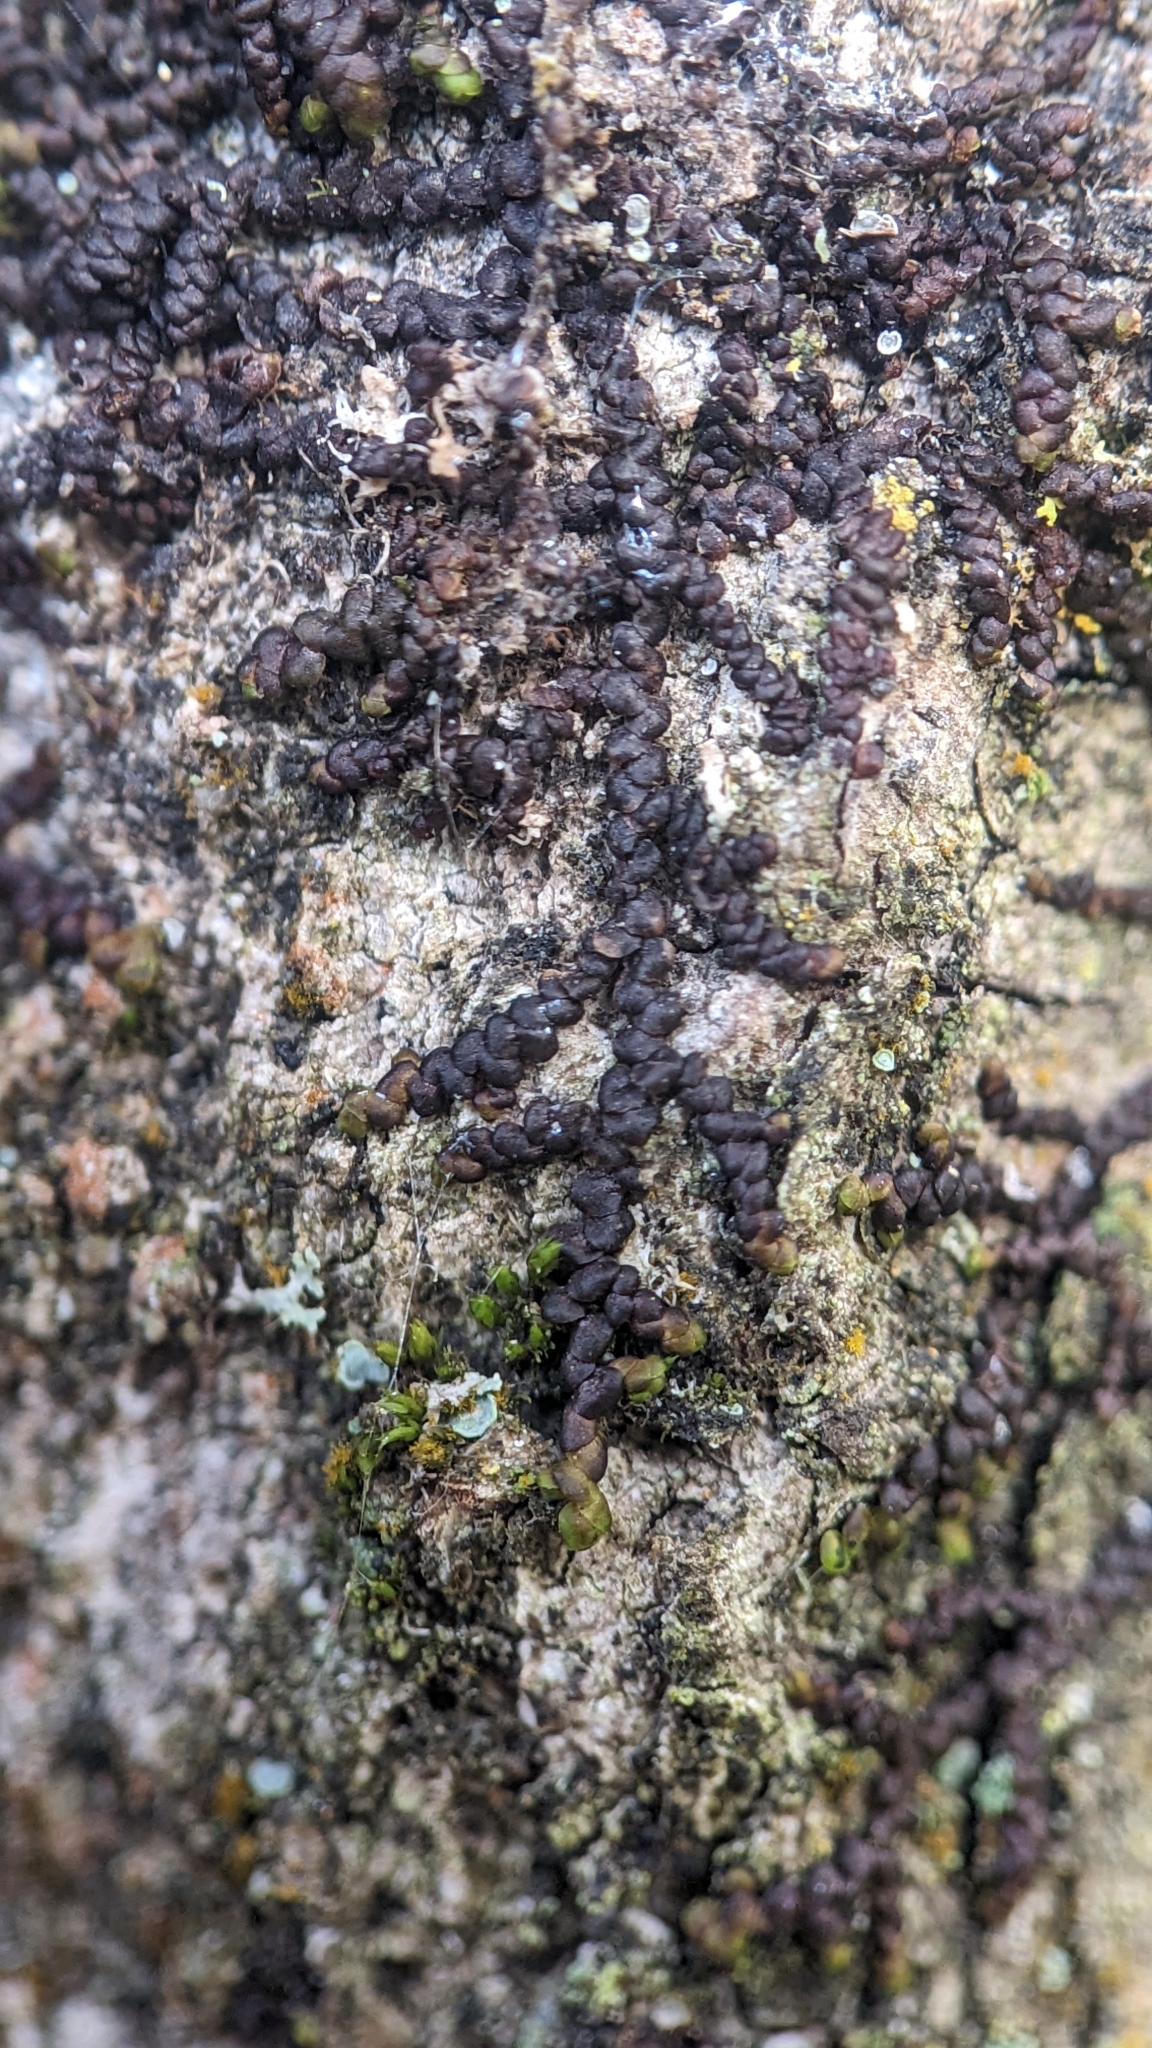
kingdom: Plantae
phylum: Marchantiophyta
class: Jungermanniopsida
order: Porellales
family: Frullaniaceae
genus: Frullania
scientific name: Frullania dilatata
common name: Dilated scalewort
